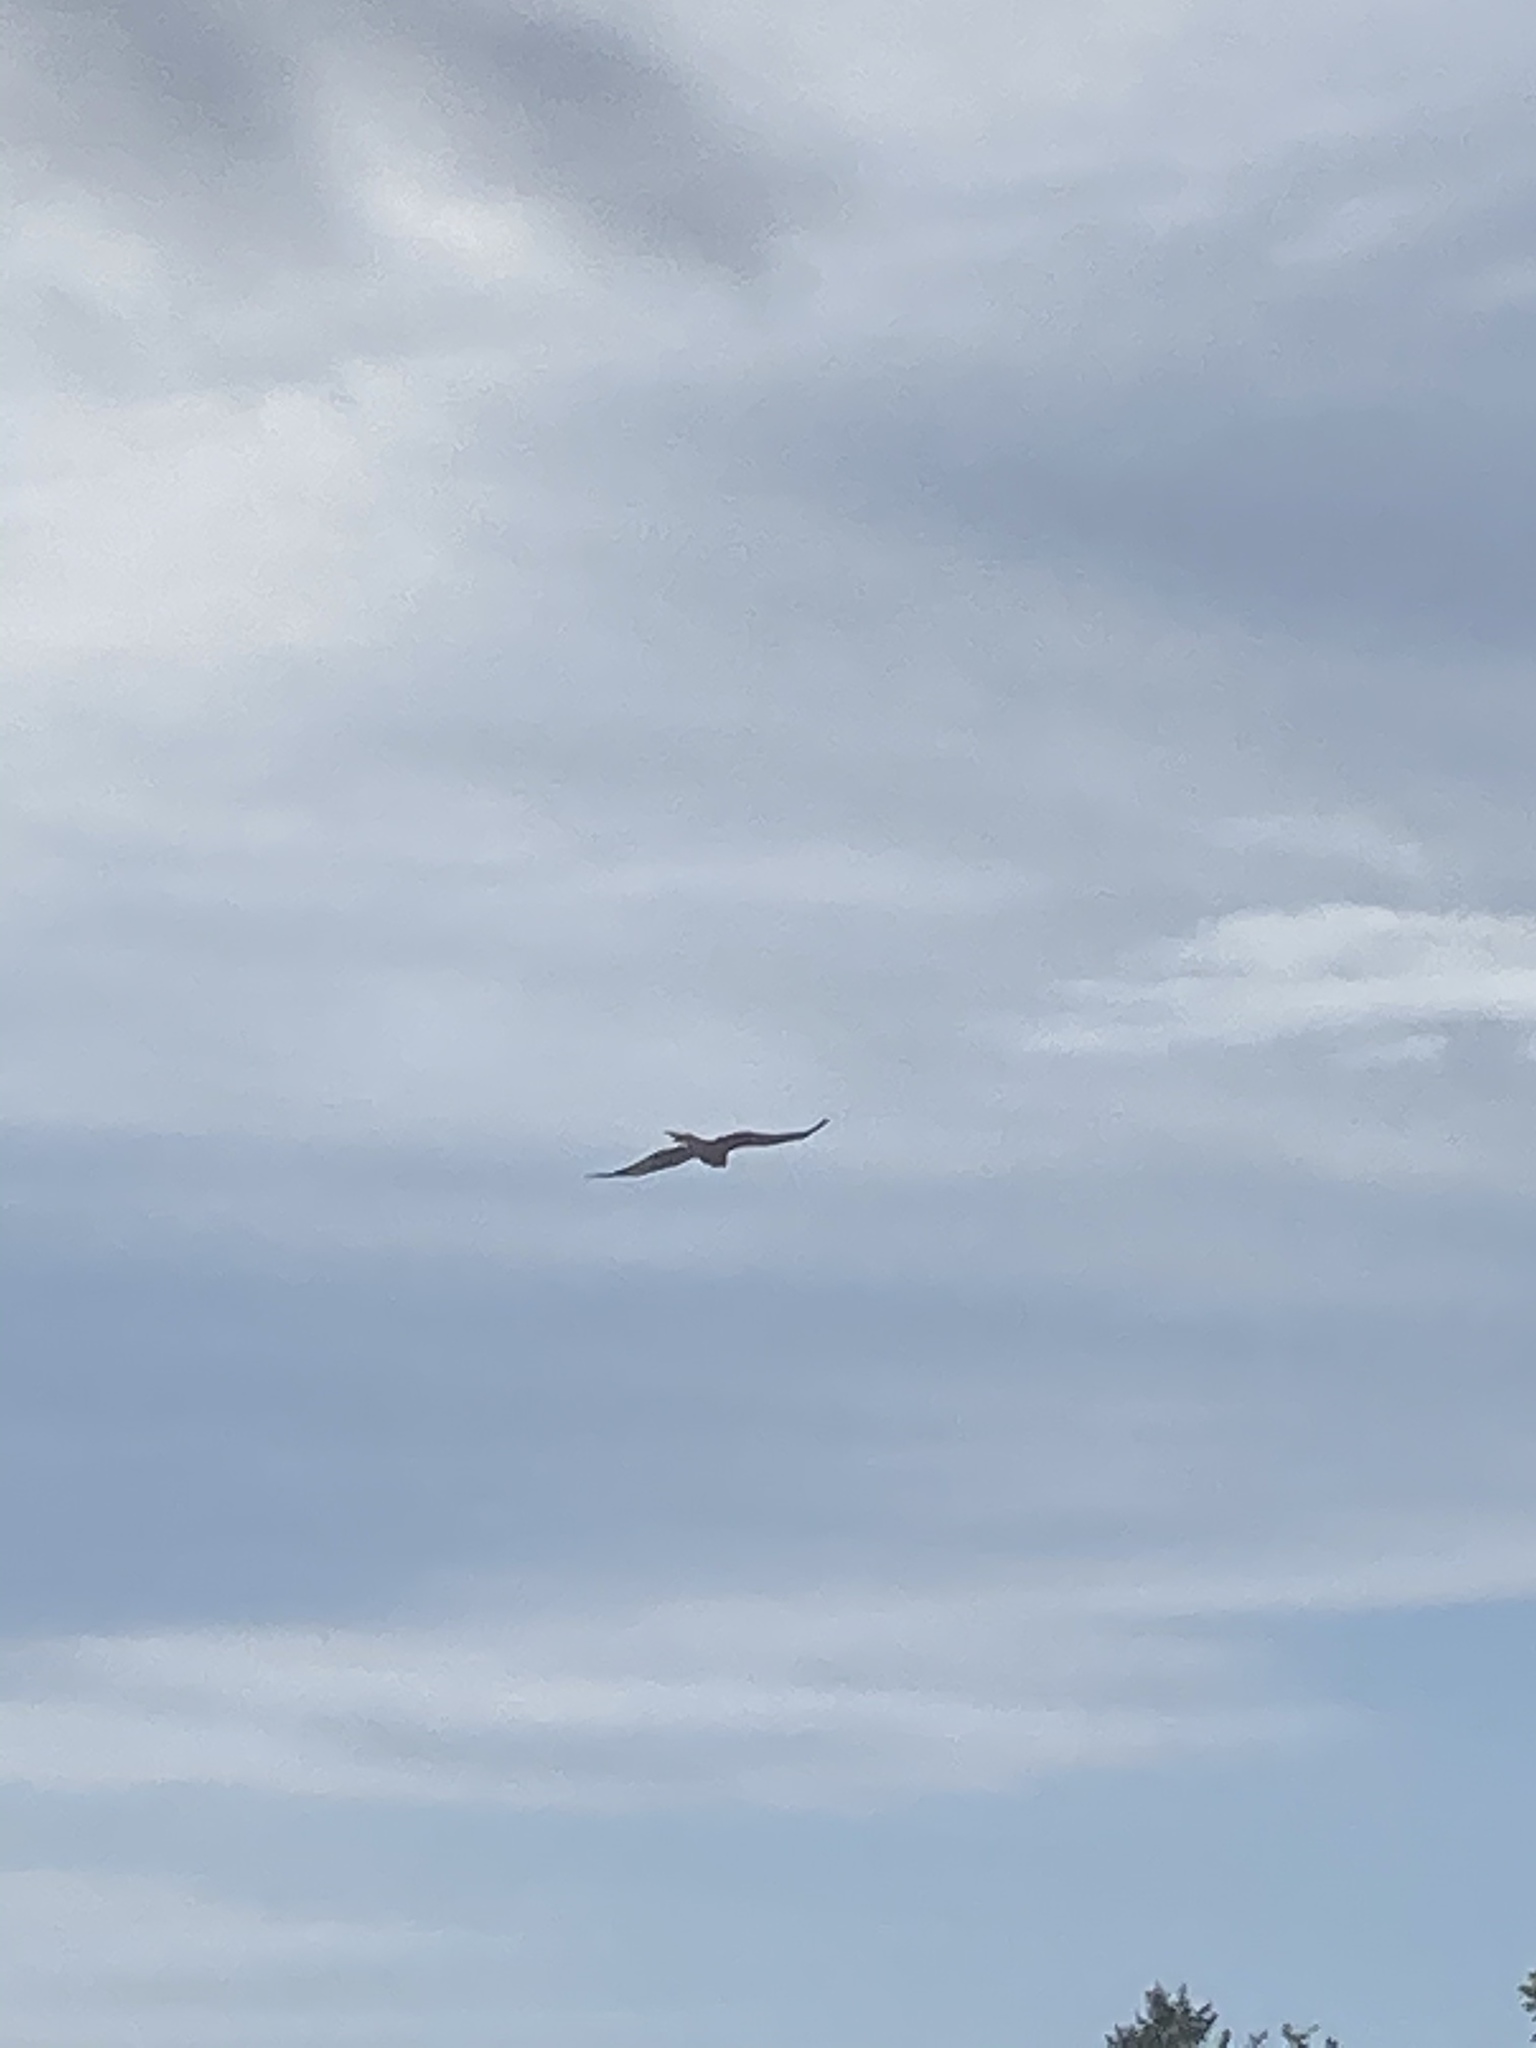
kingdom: Animalia
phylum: Chordata
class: Aves
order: Accipitriformes
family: Accipitridae
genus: Milvus
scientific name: Milvus milvus
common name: Red kite
